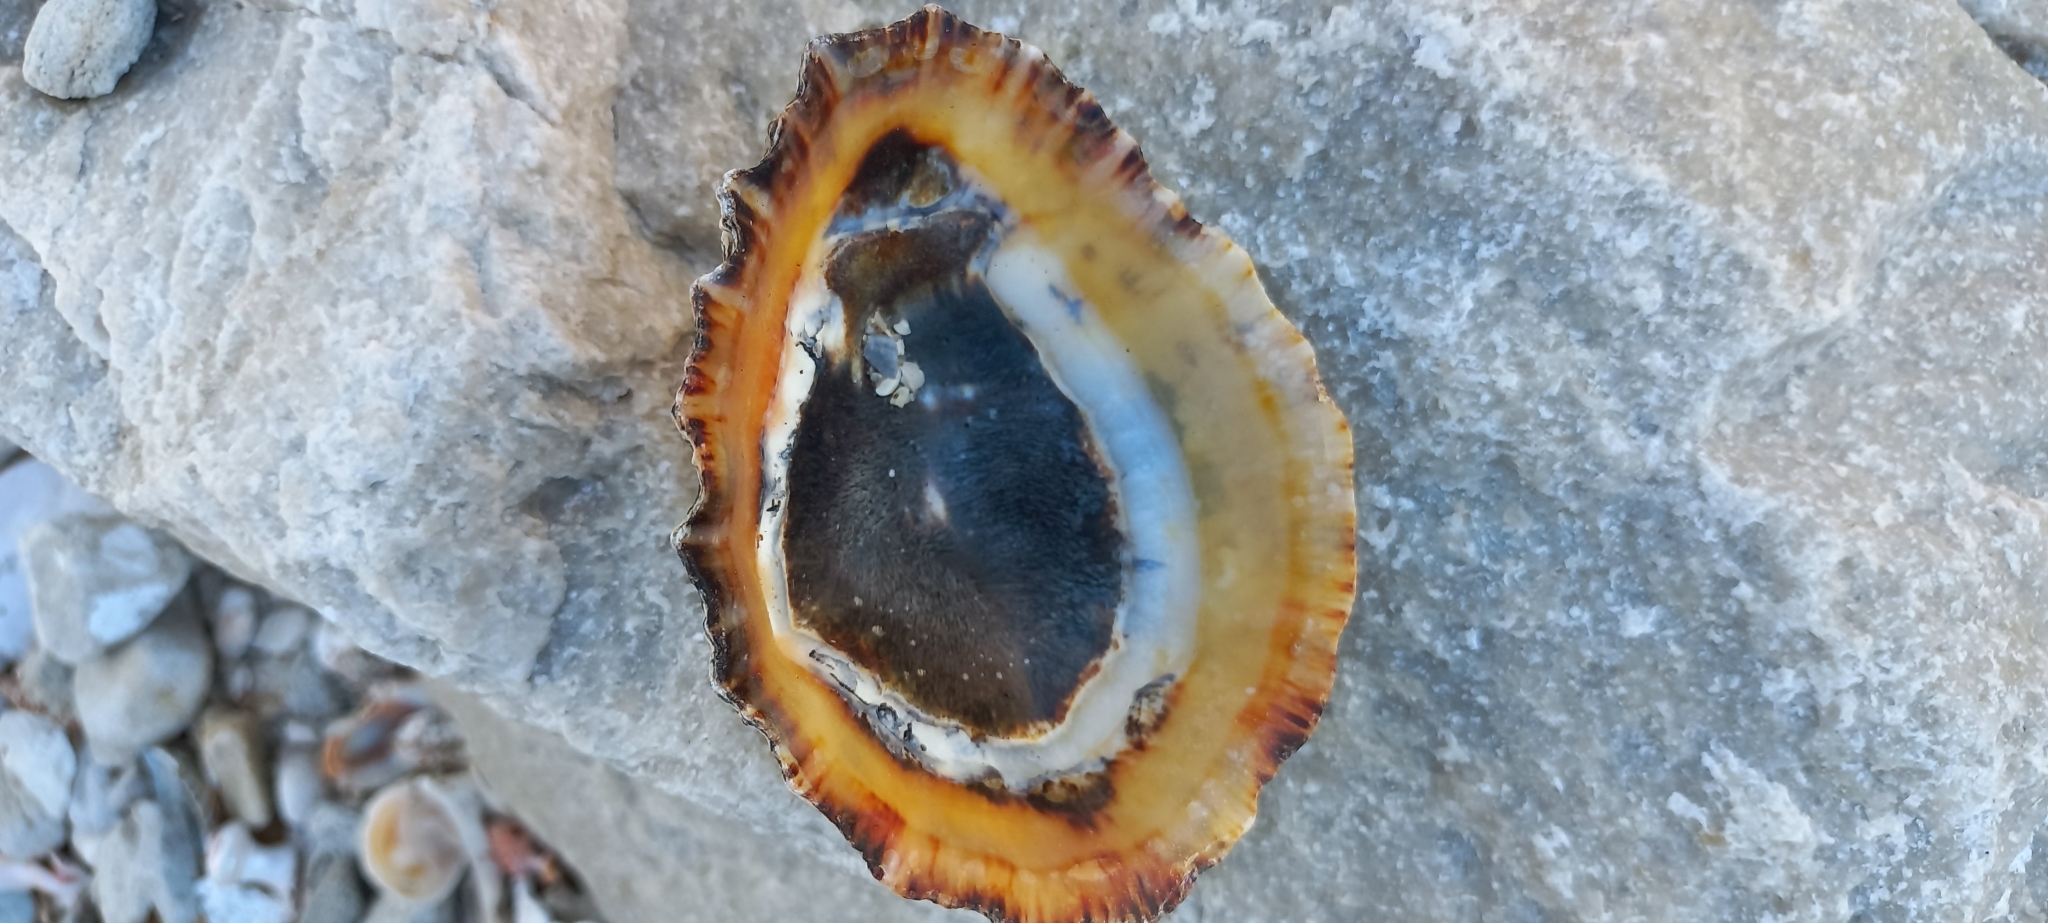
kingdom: Animalia
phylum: Mollusca
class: Gastropoda
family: Patellidae
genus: Cymbula
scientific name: Cymbula granatina
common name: Granite limpet
